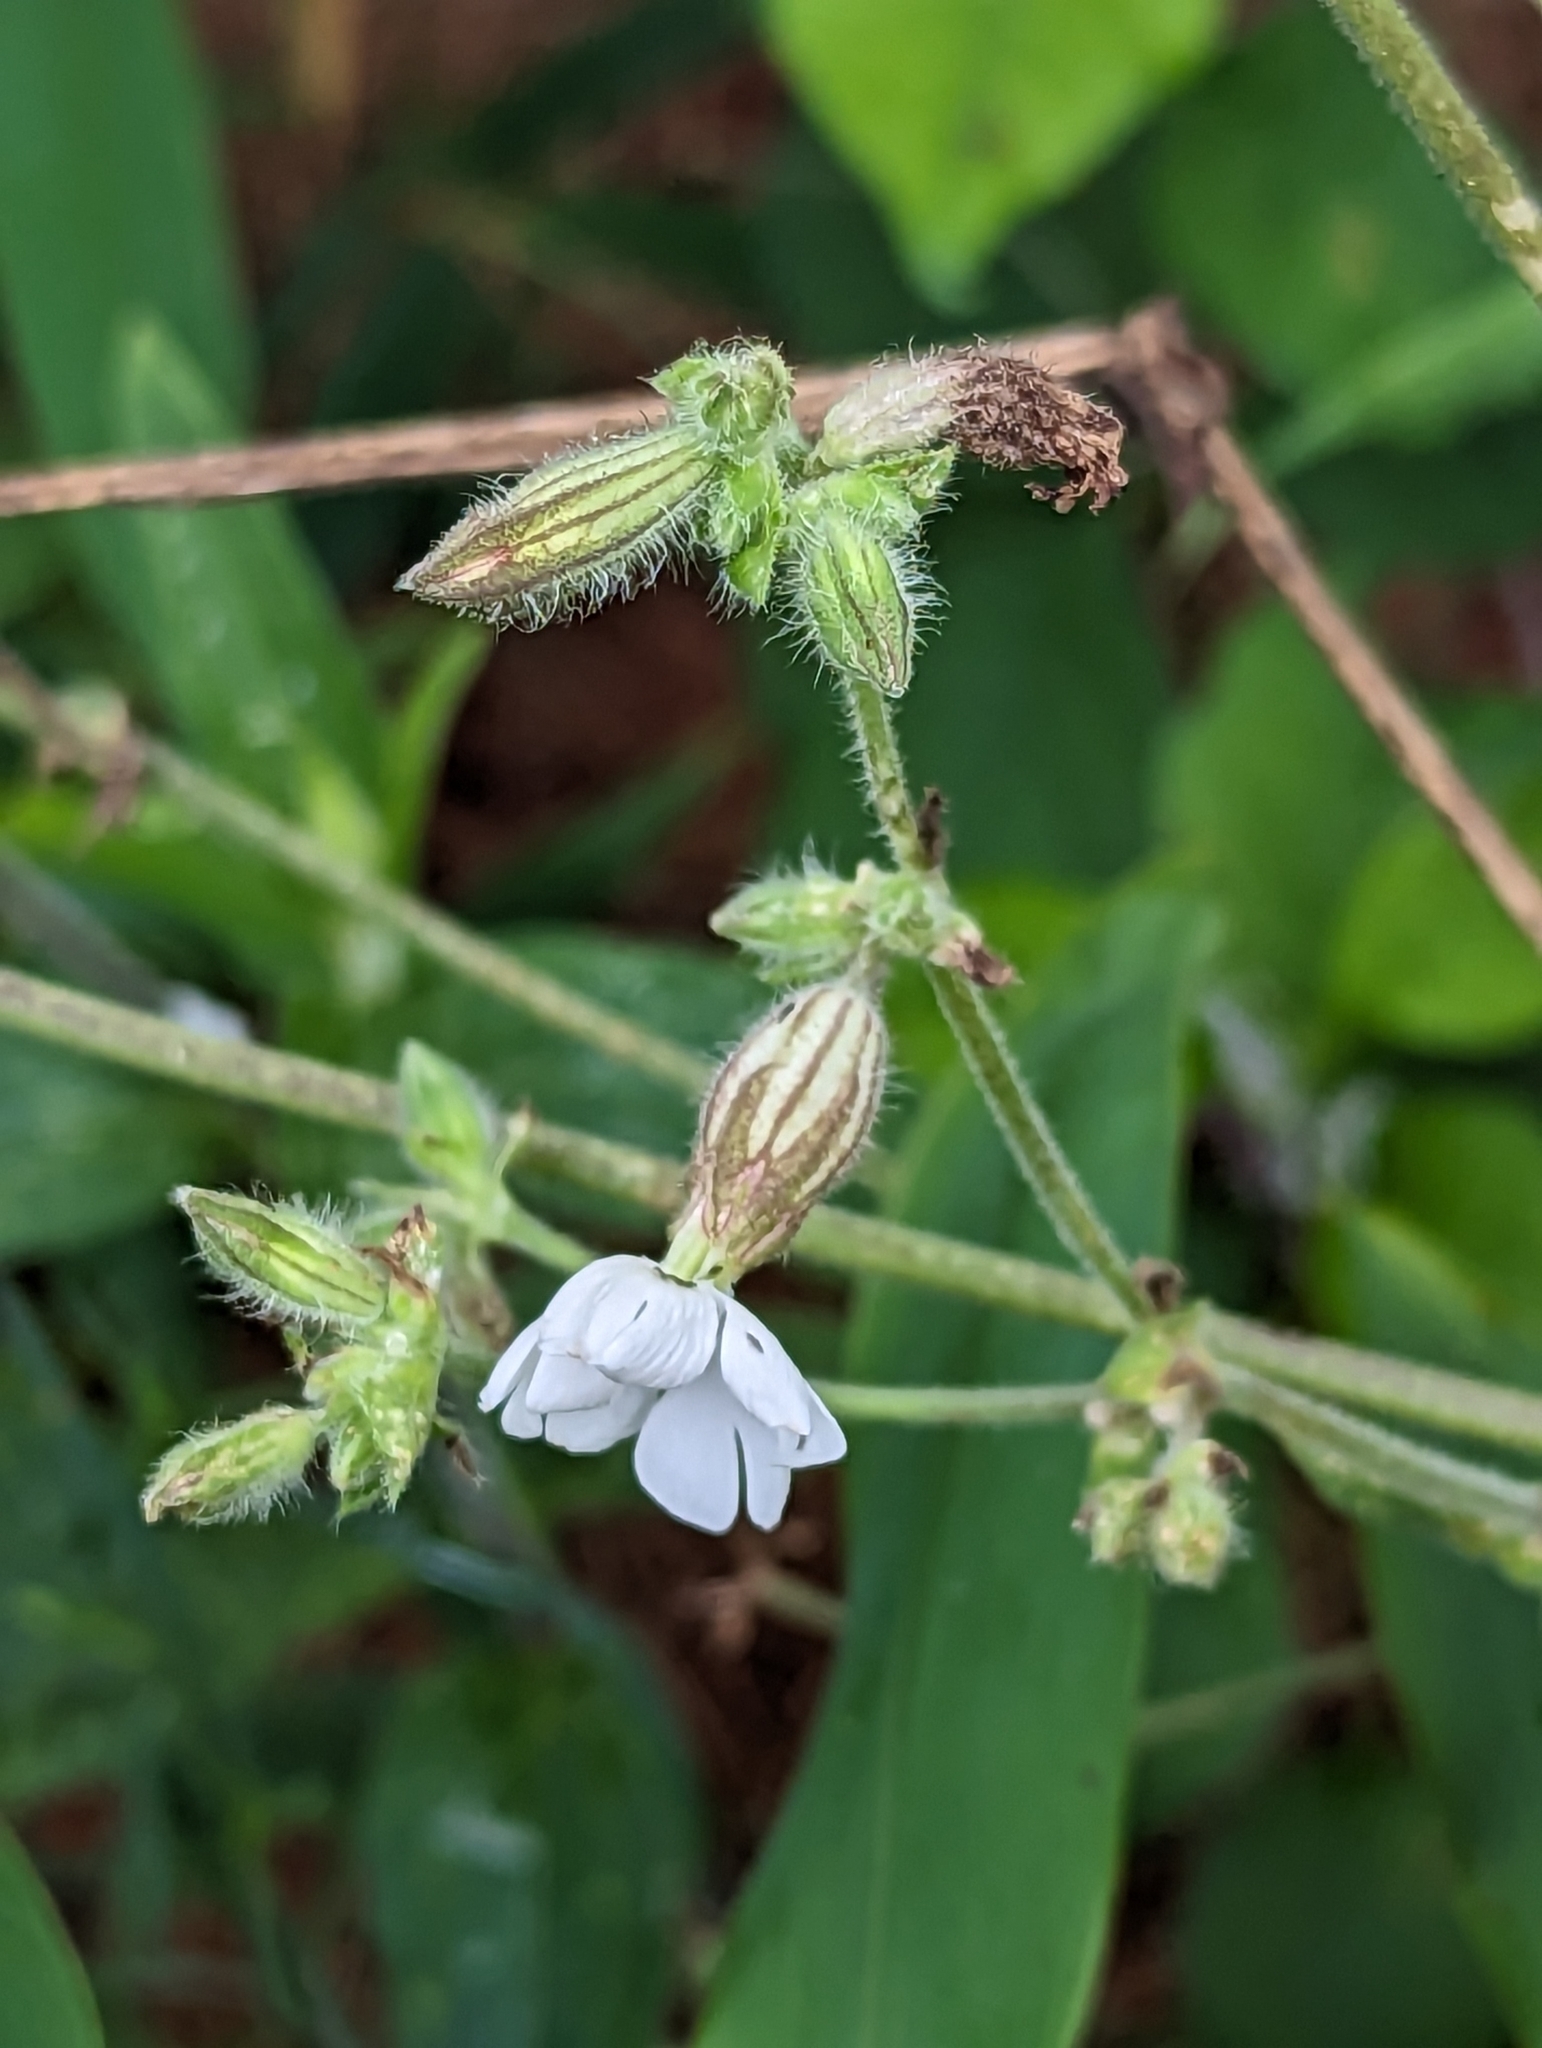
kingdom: Plantae
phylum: Tracheophyta
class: Magnoliopsida
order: Caryophyllales
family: Caryophyllaceae
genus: Silene
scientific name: Silene latifolia
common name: White campion
